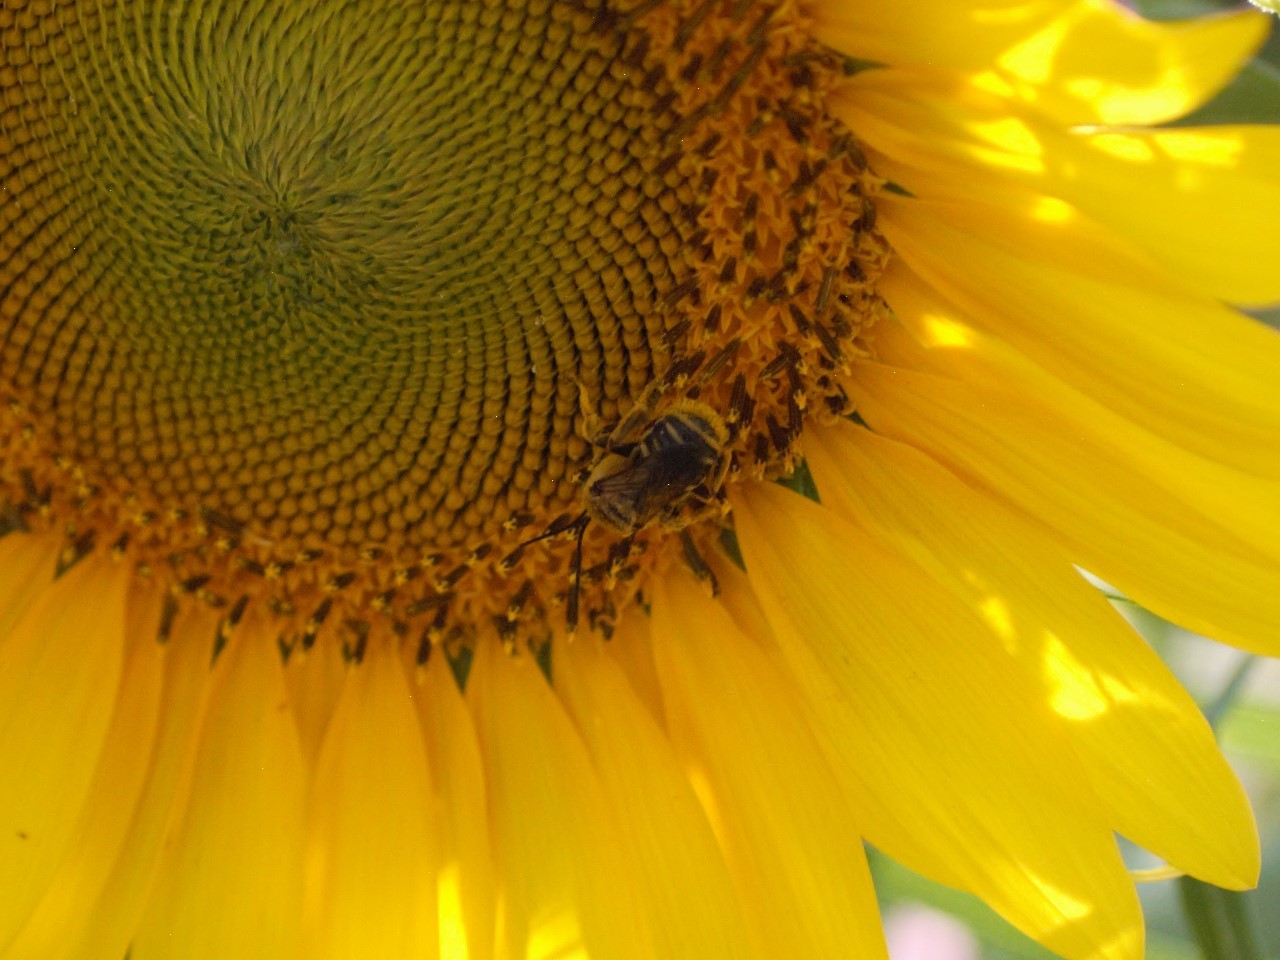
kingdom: Animalia
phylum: Arthropoda
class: Insecta
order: Hymenoptera
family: Apidae
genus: Svastra
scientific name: Svastra obliqua
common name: Oblique longhorn
